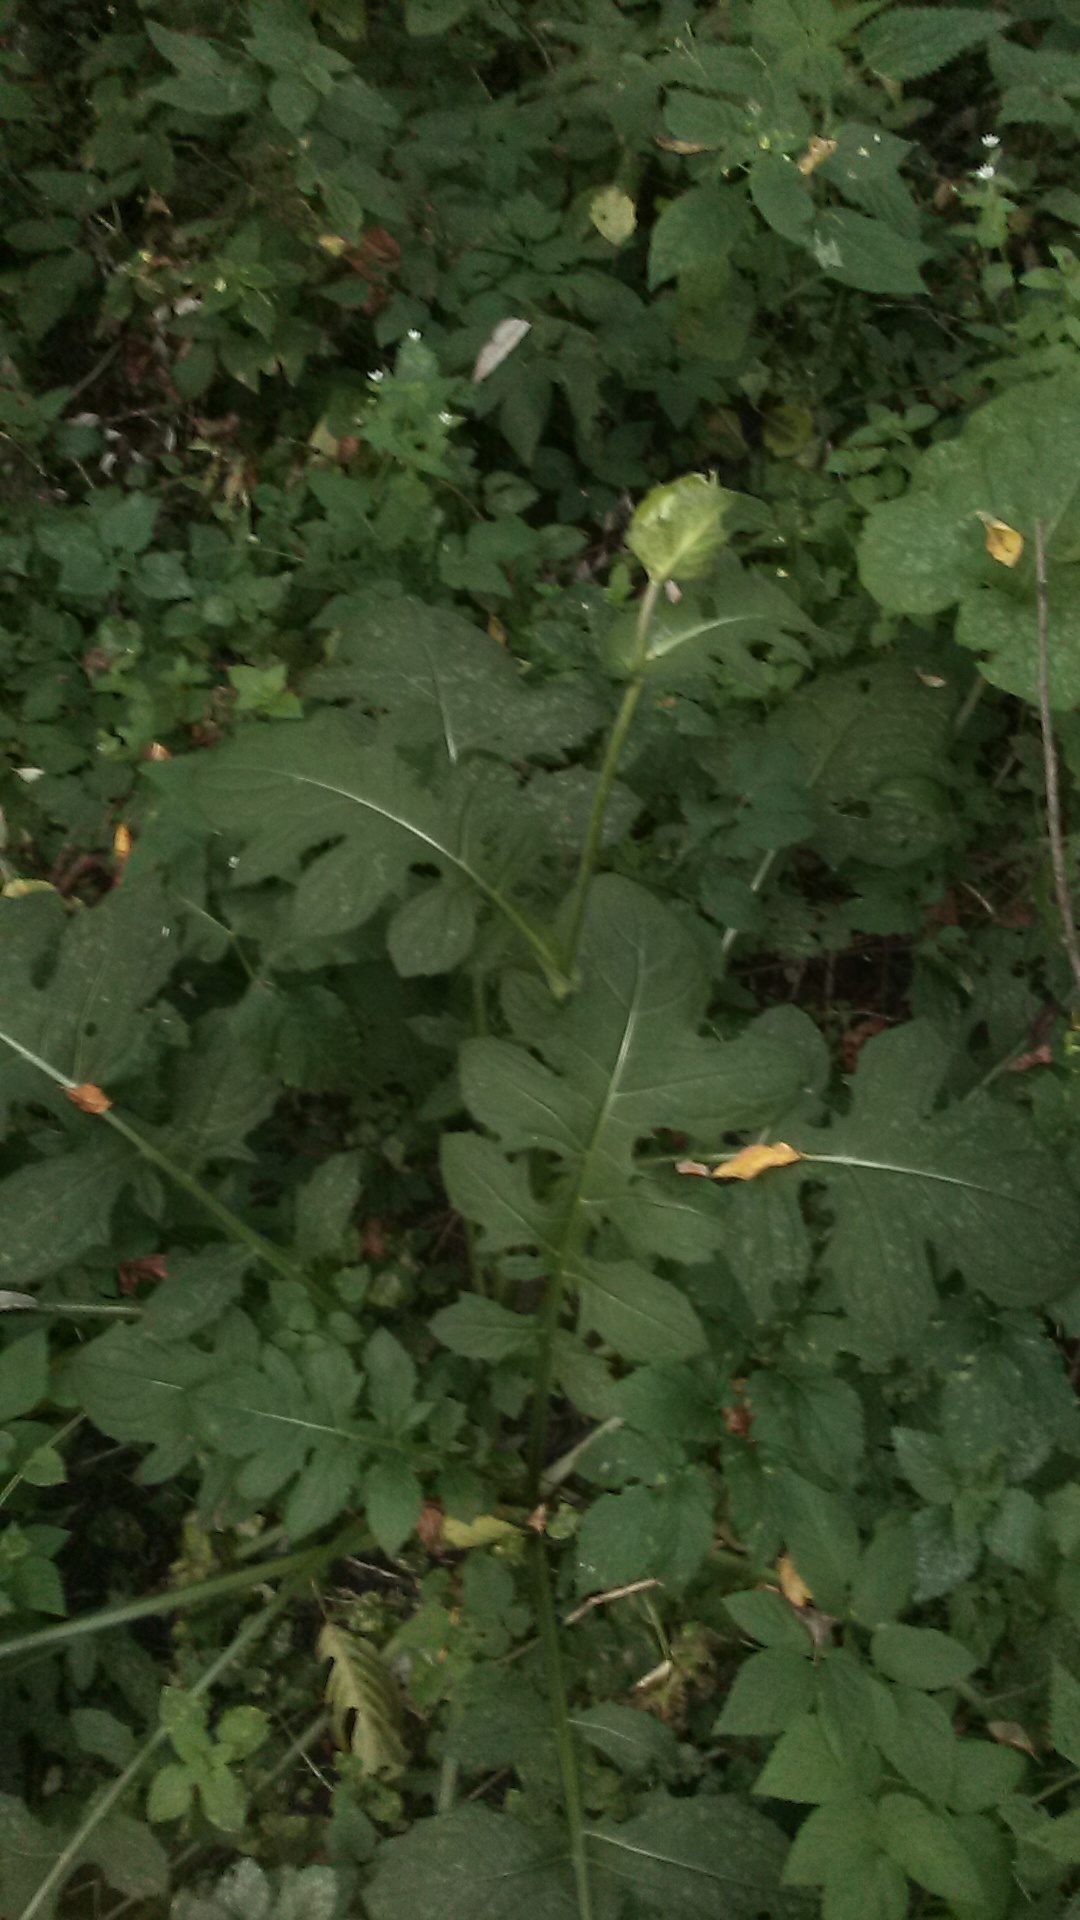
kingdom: Plantae
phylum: Tracheophyta
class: Magnoliopsida
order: Asterales
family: Asteraceae
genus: Cirsium
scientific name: Cirsium oleraceum
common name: Cabbage thistle
